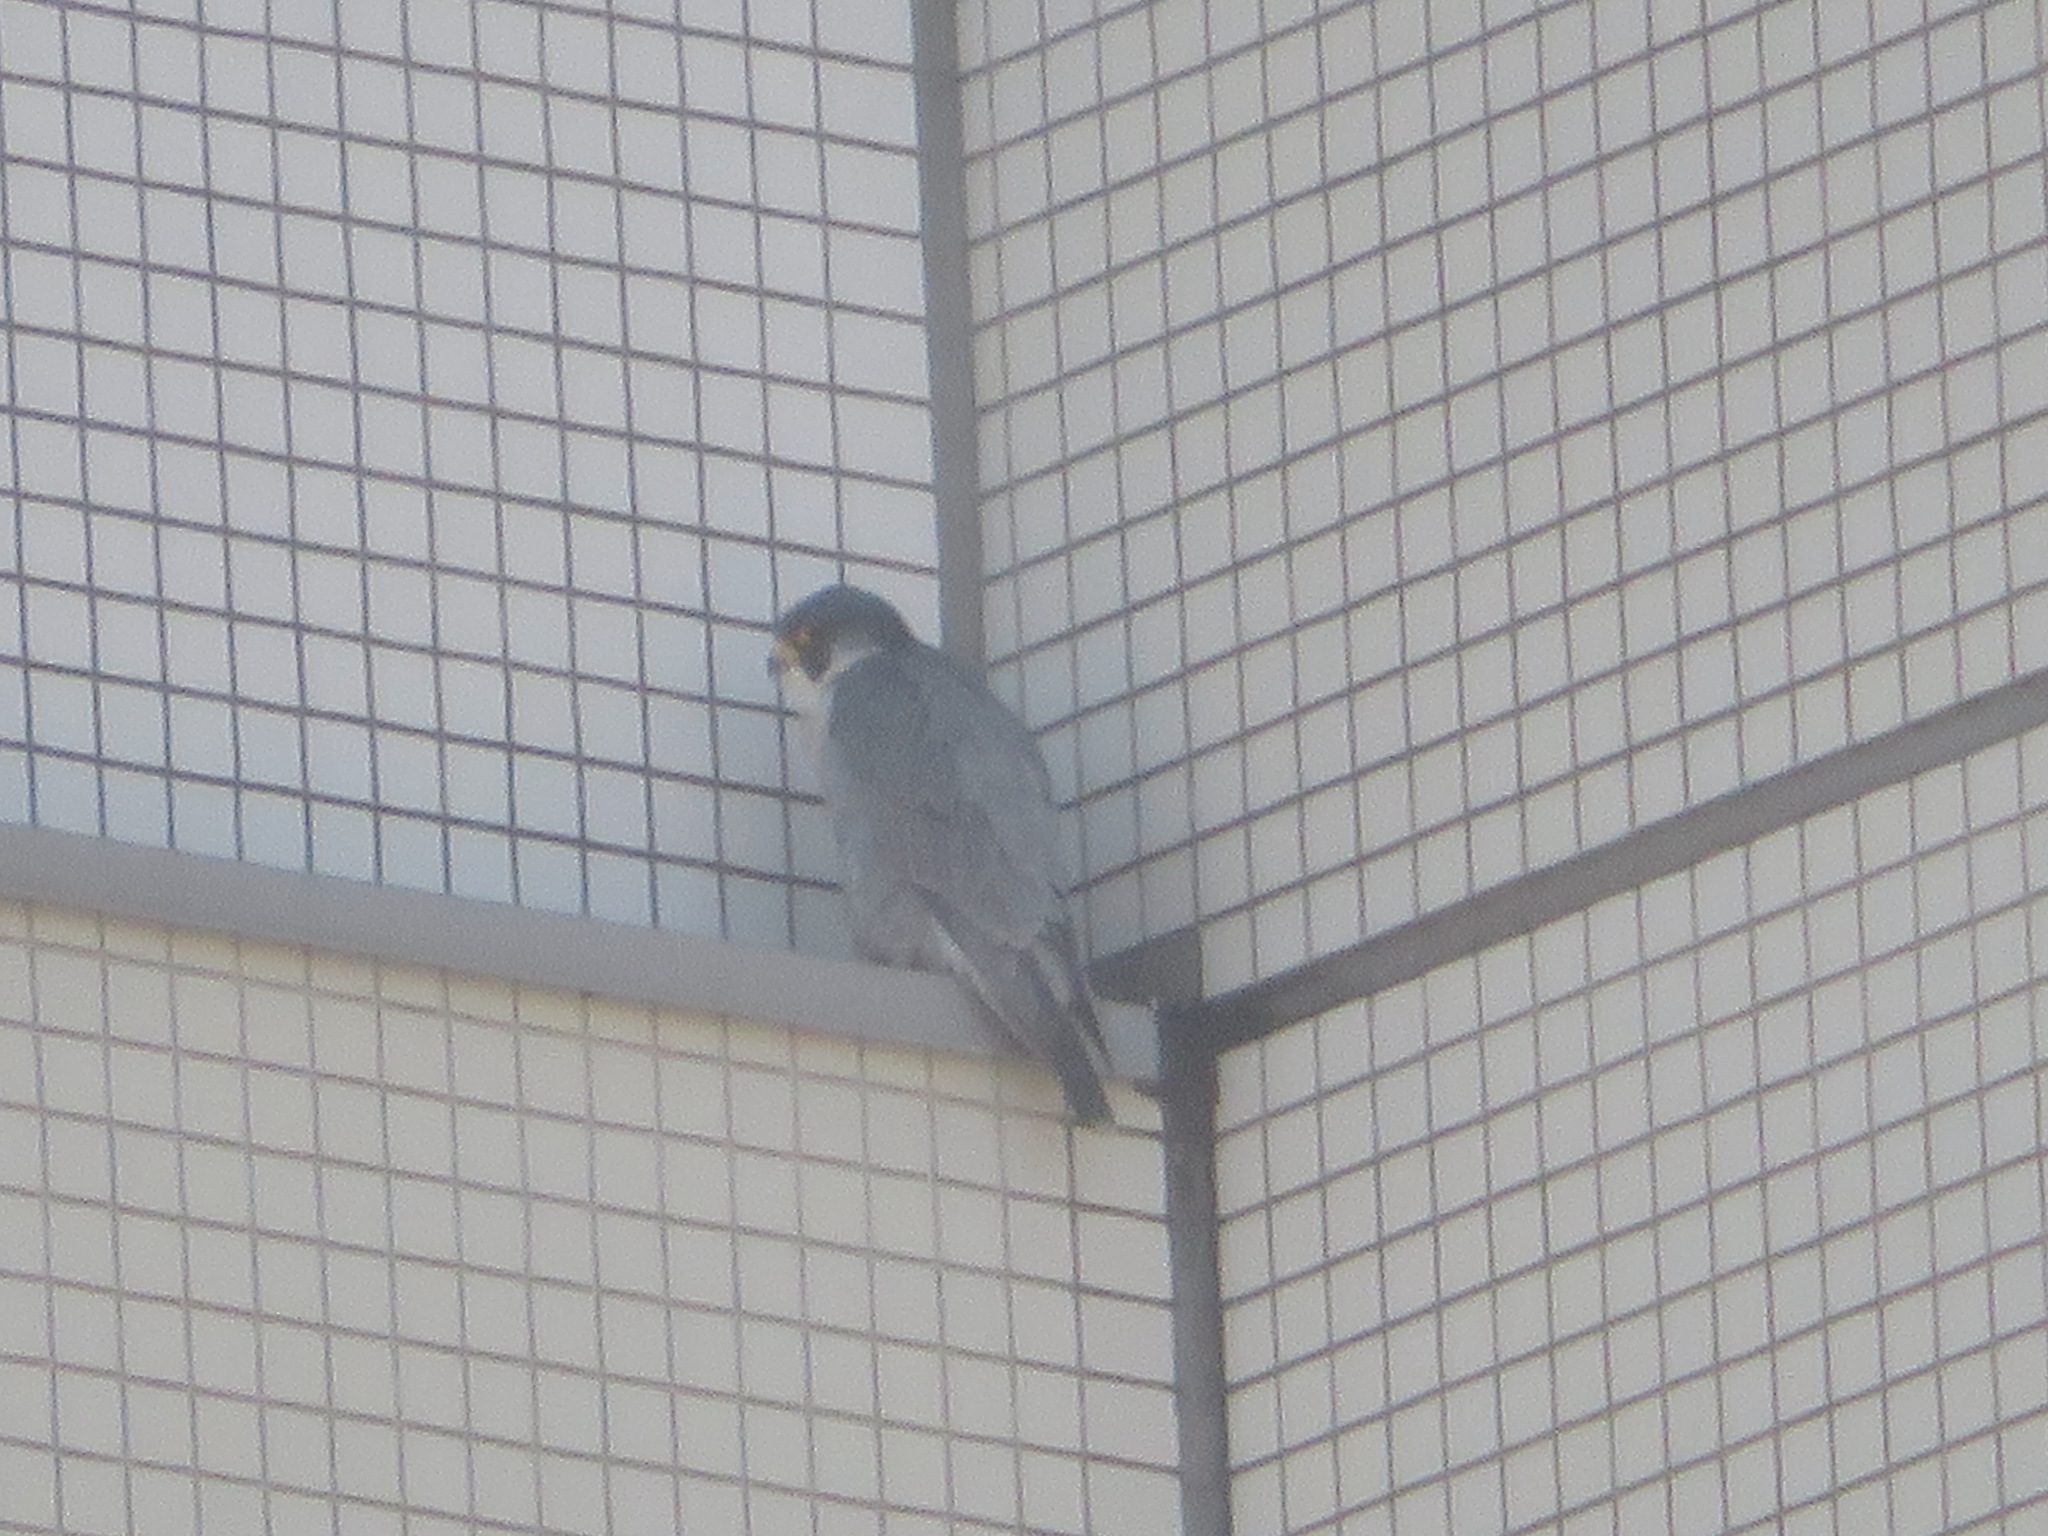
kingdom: Animalia
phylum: Chordata
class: Aves
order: Falconiformes
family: Falconidae
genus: Falco
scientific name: Falco peregrinus
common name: Peregrine falcon
